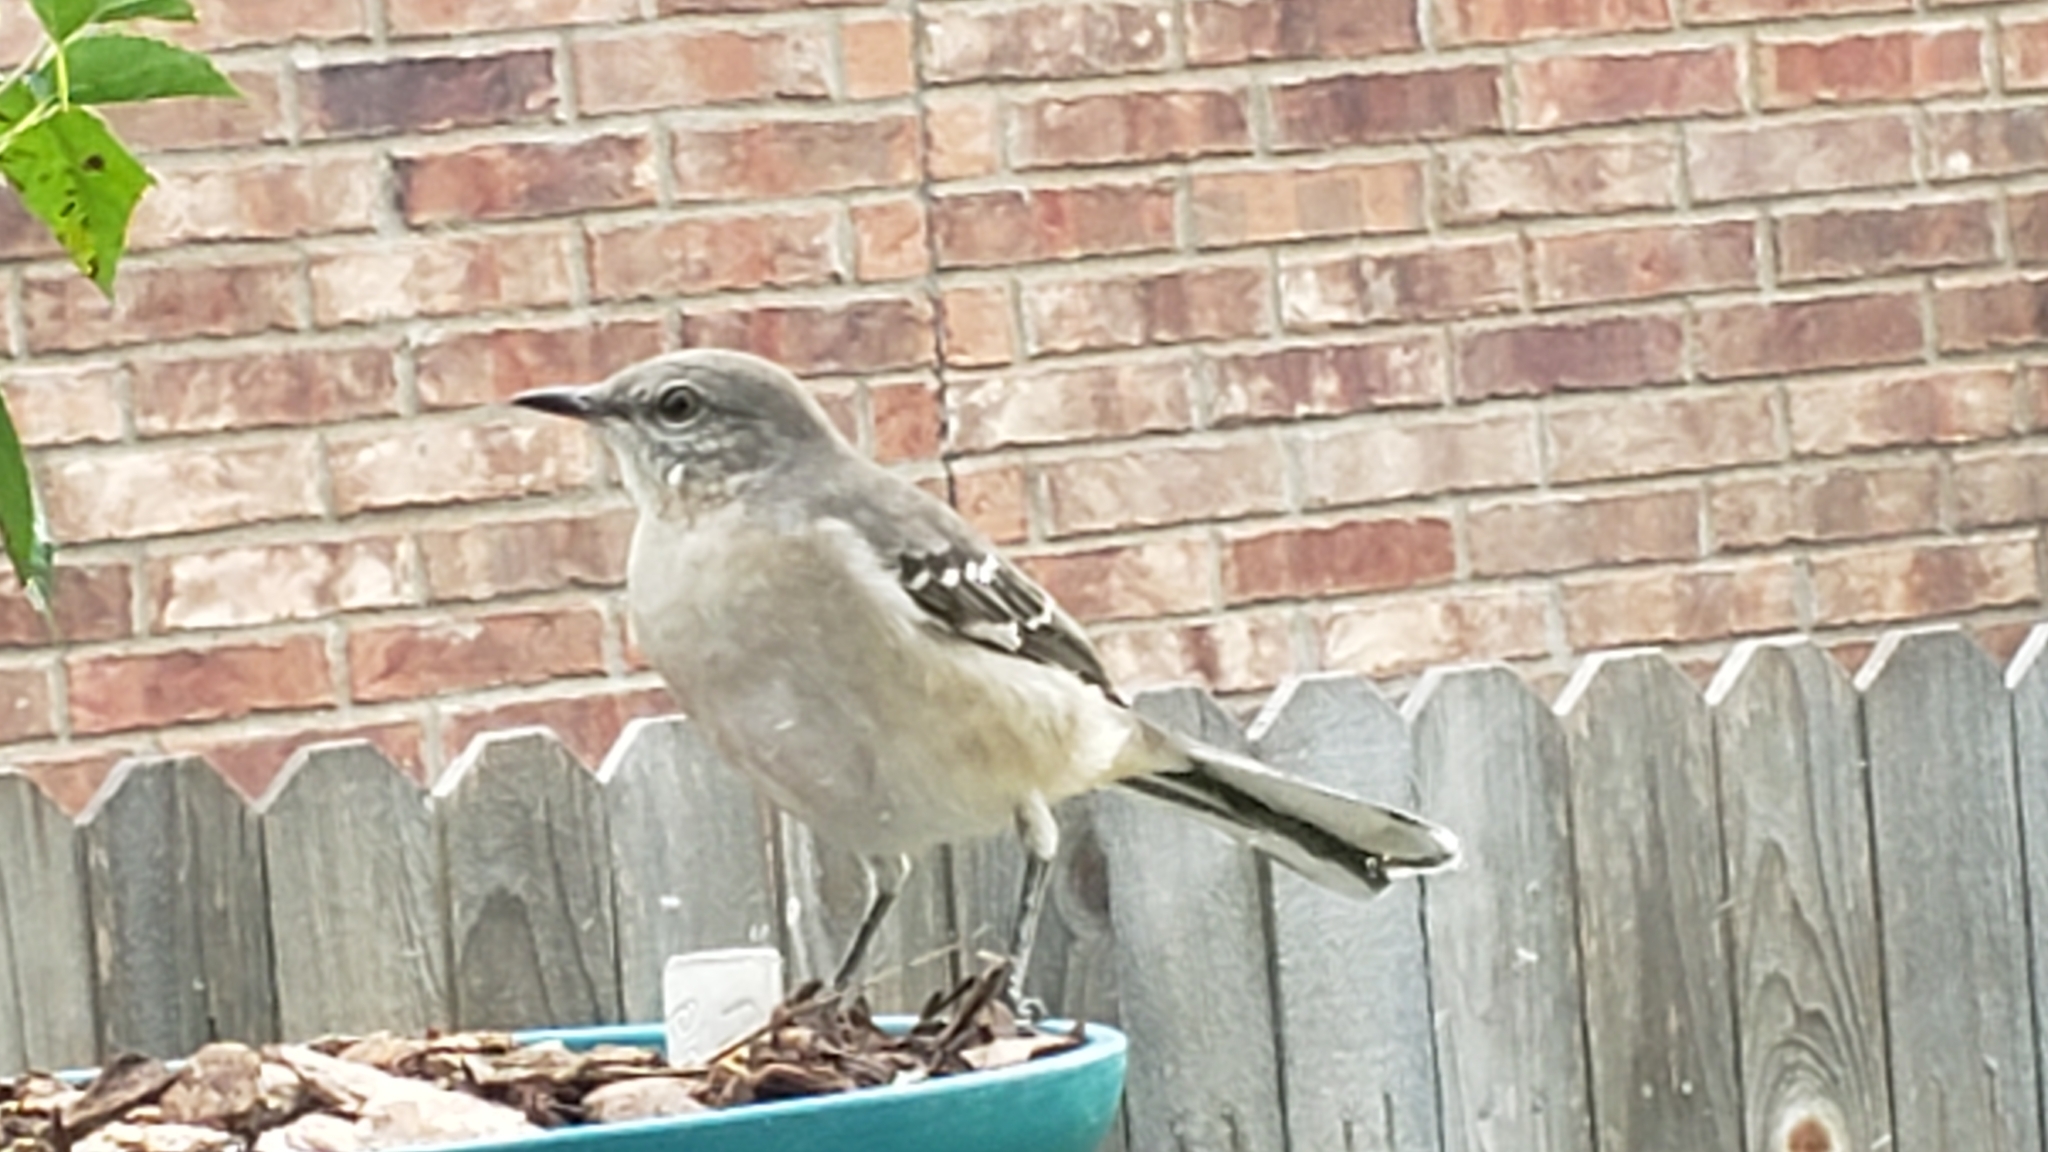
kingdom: Animalia
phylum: Chordata
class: Aves
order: Passeriformes
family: Mimidae
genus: Mimus
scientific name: Mimus polyglottos
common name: Northern mockingbird
